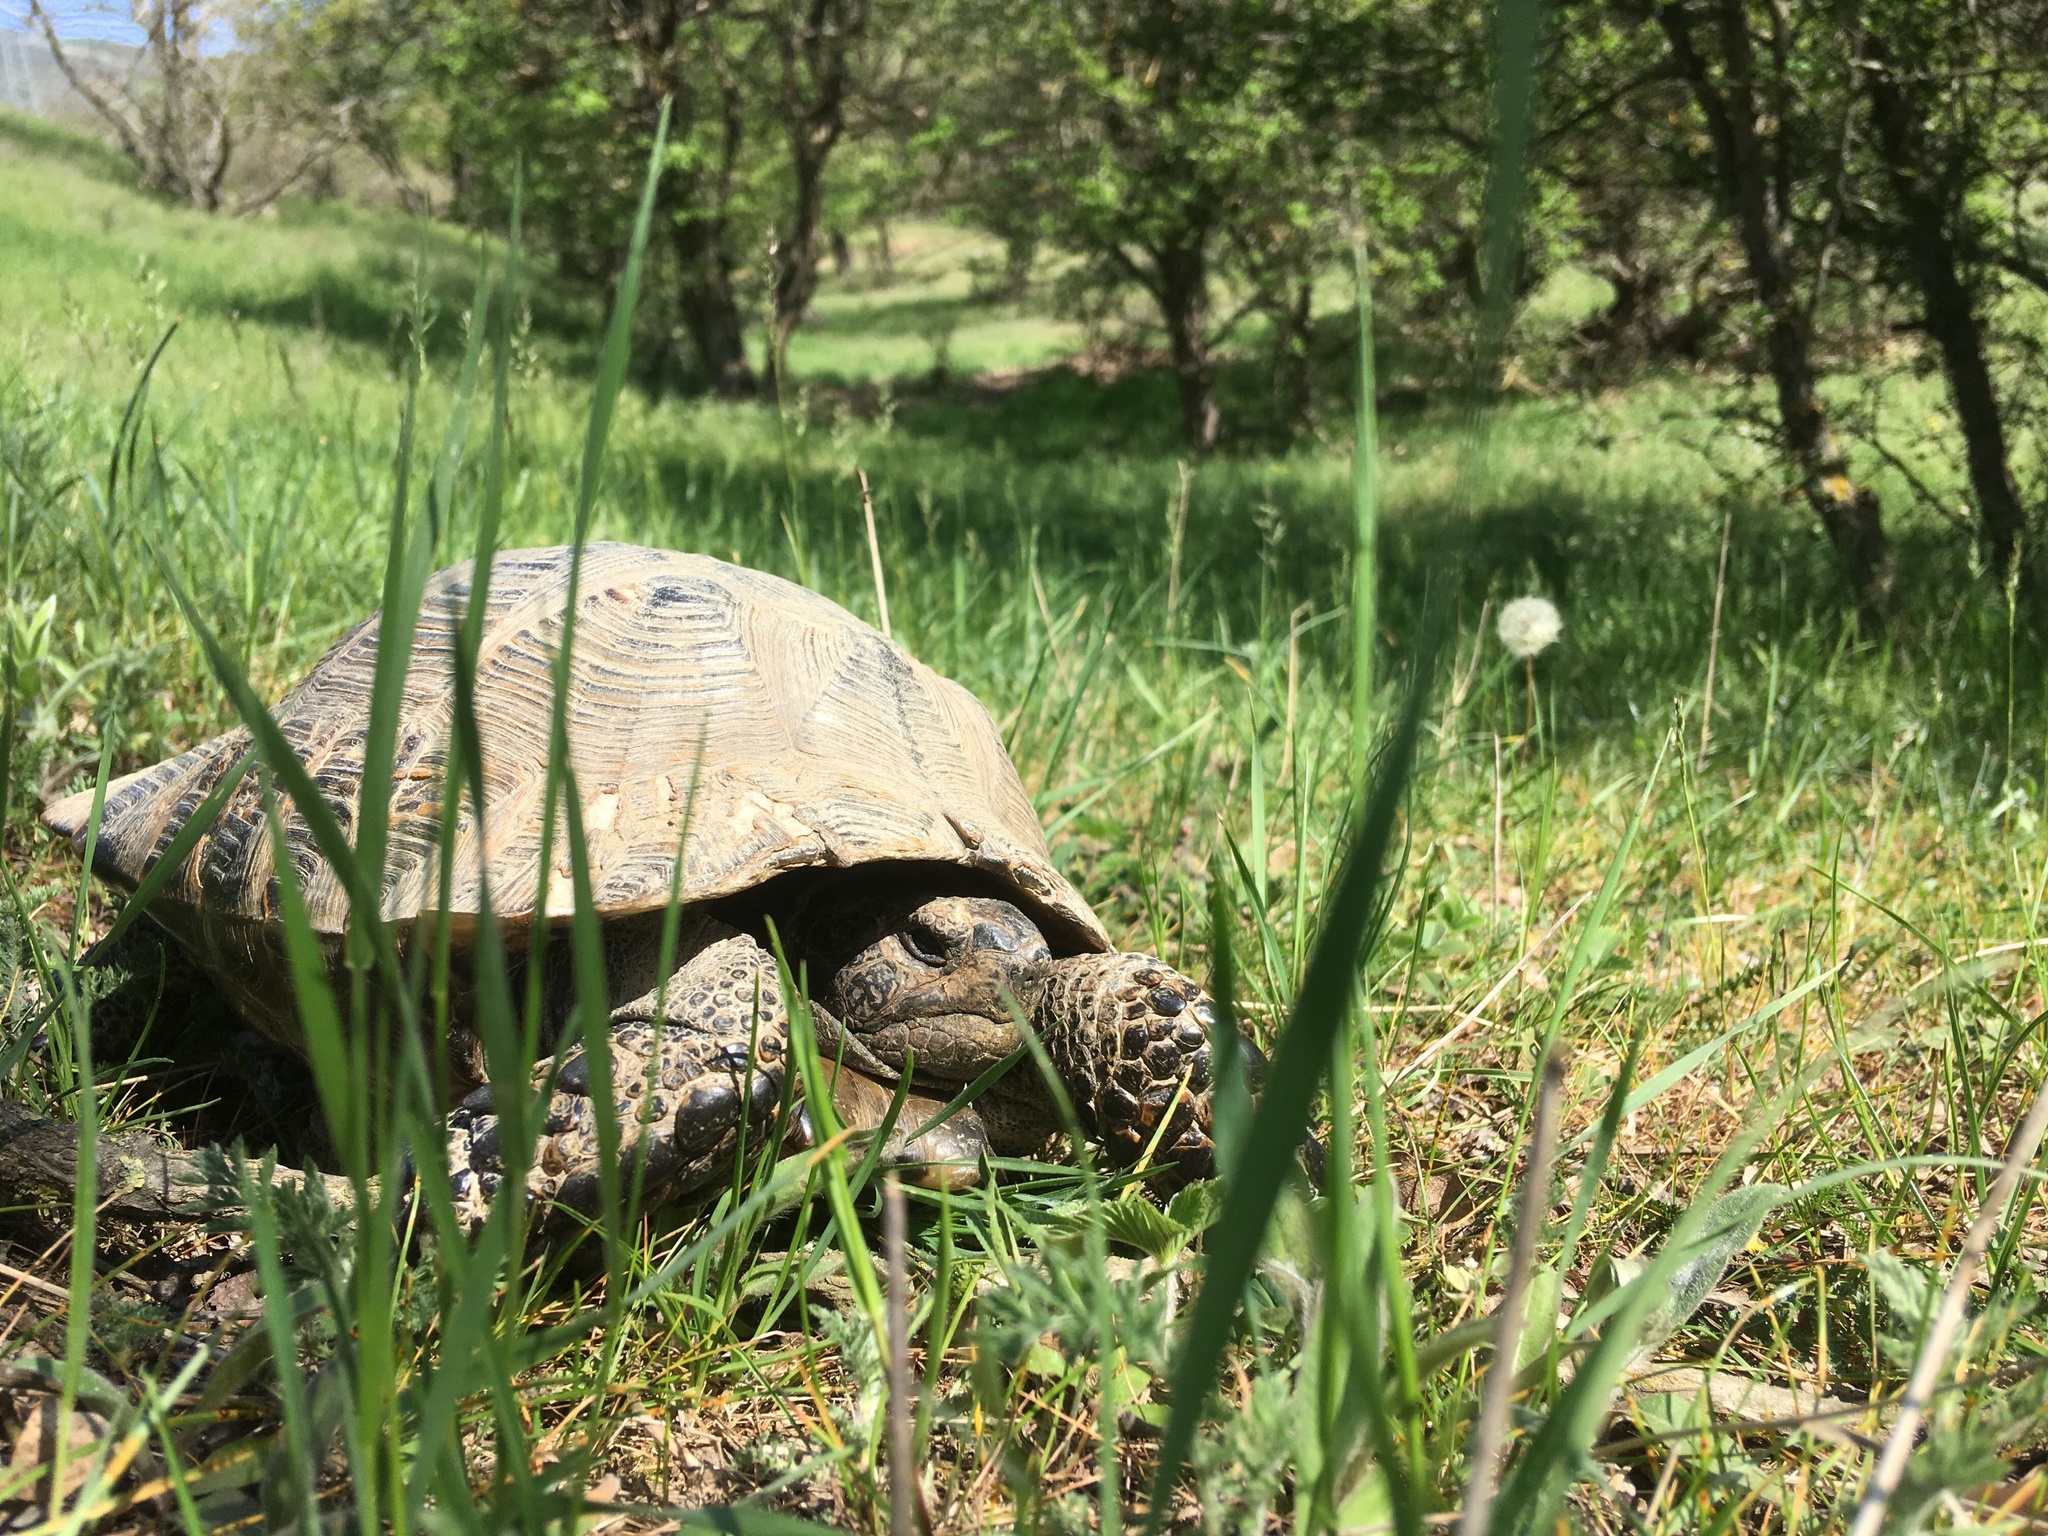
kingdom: Animalia
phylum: Chordata
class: Testudines
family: Testudinidae
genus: Testudo
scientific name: Testudo graeca
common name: Common tortoise
